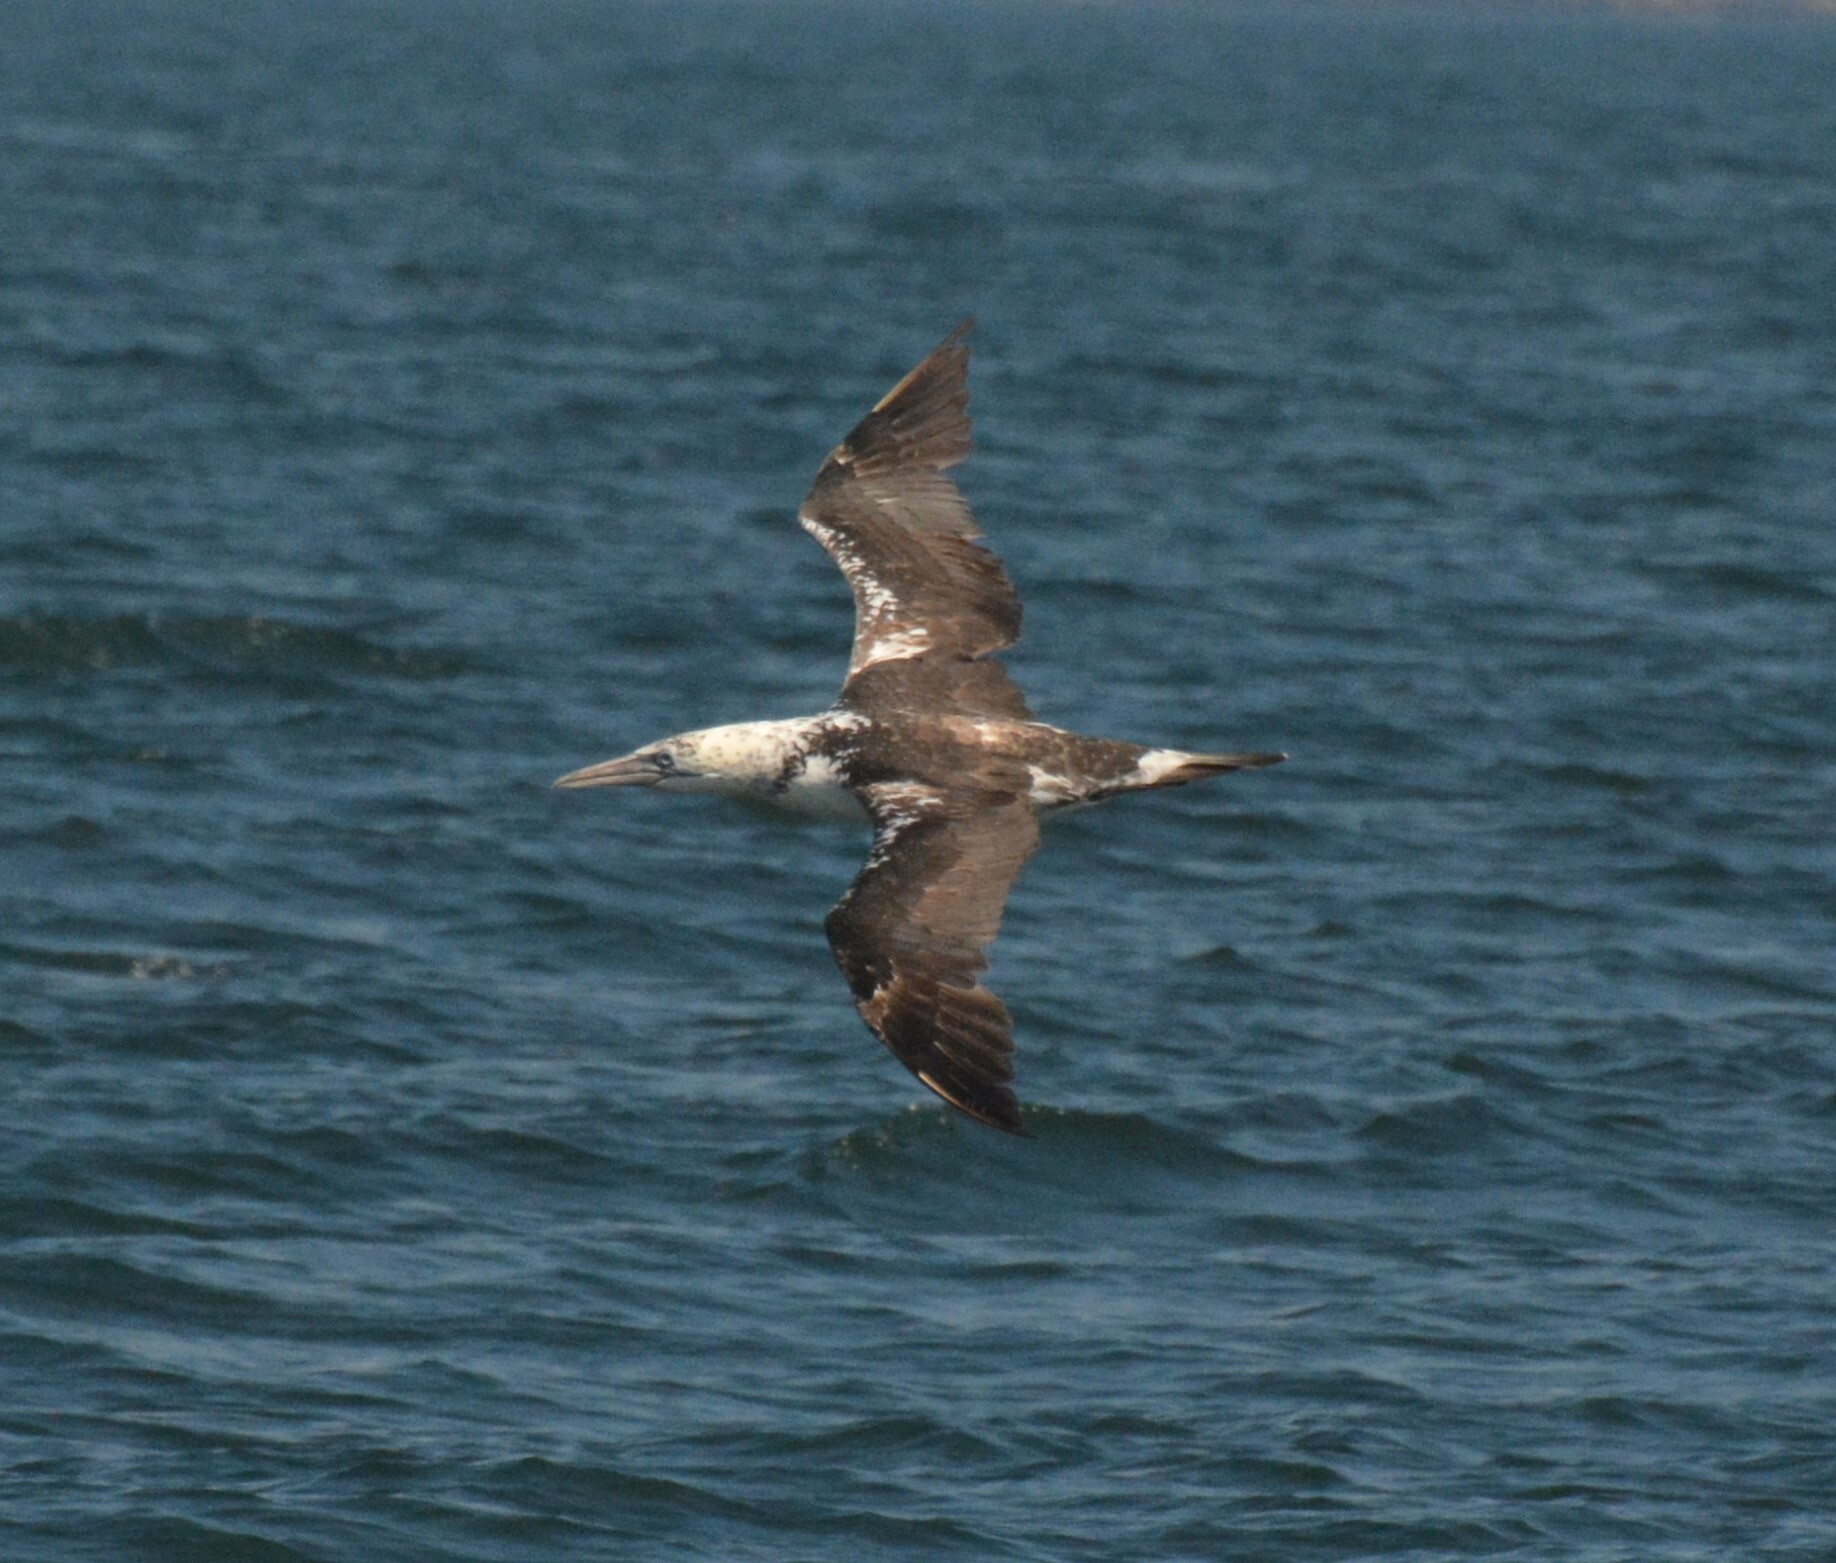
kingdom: Animalia
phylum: Chordata
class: Aves
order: Suliformes
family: Sulidae
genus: Morus
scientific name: Morus bassanus
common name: Northern gannet
